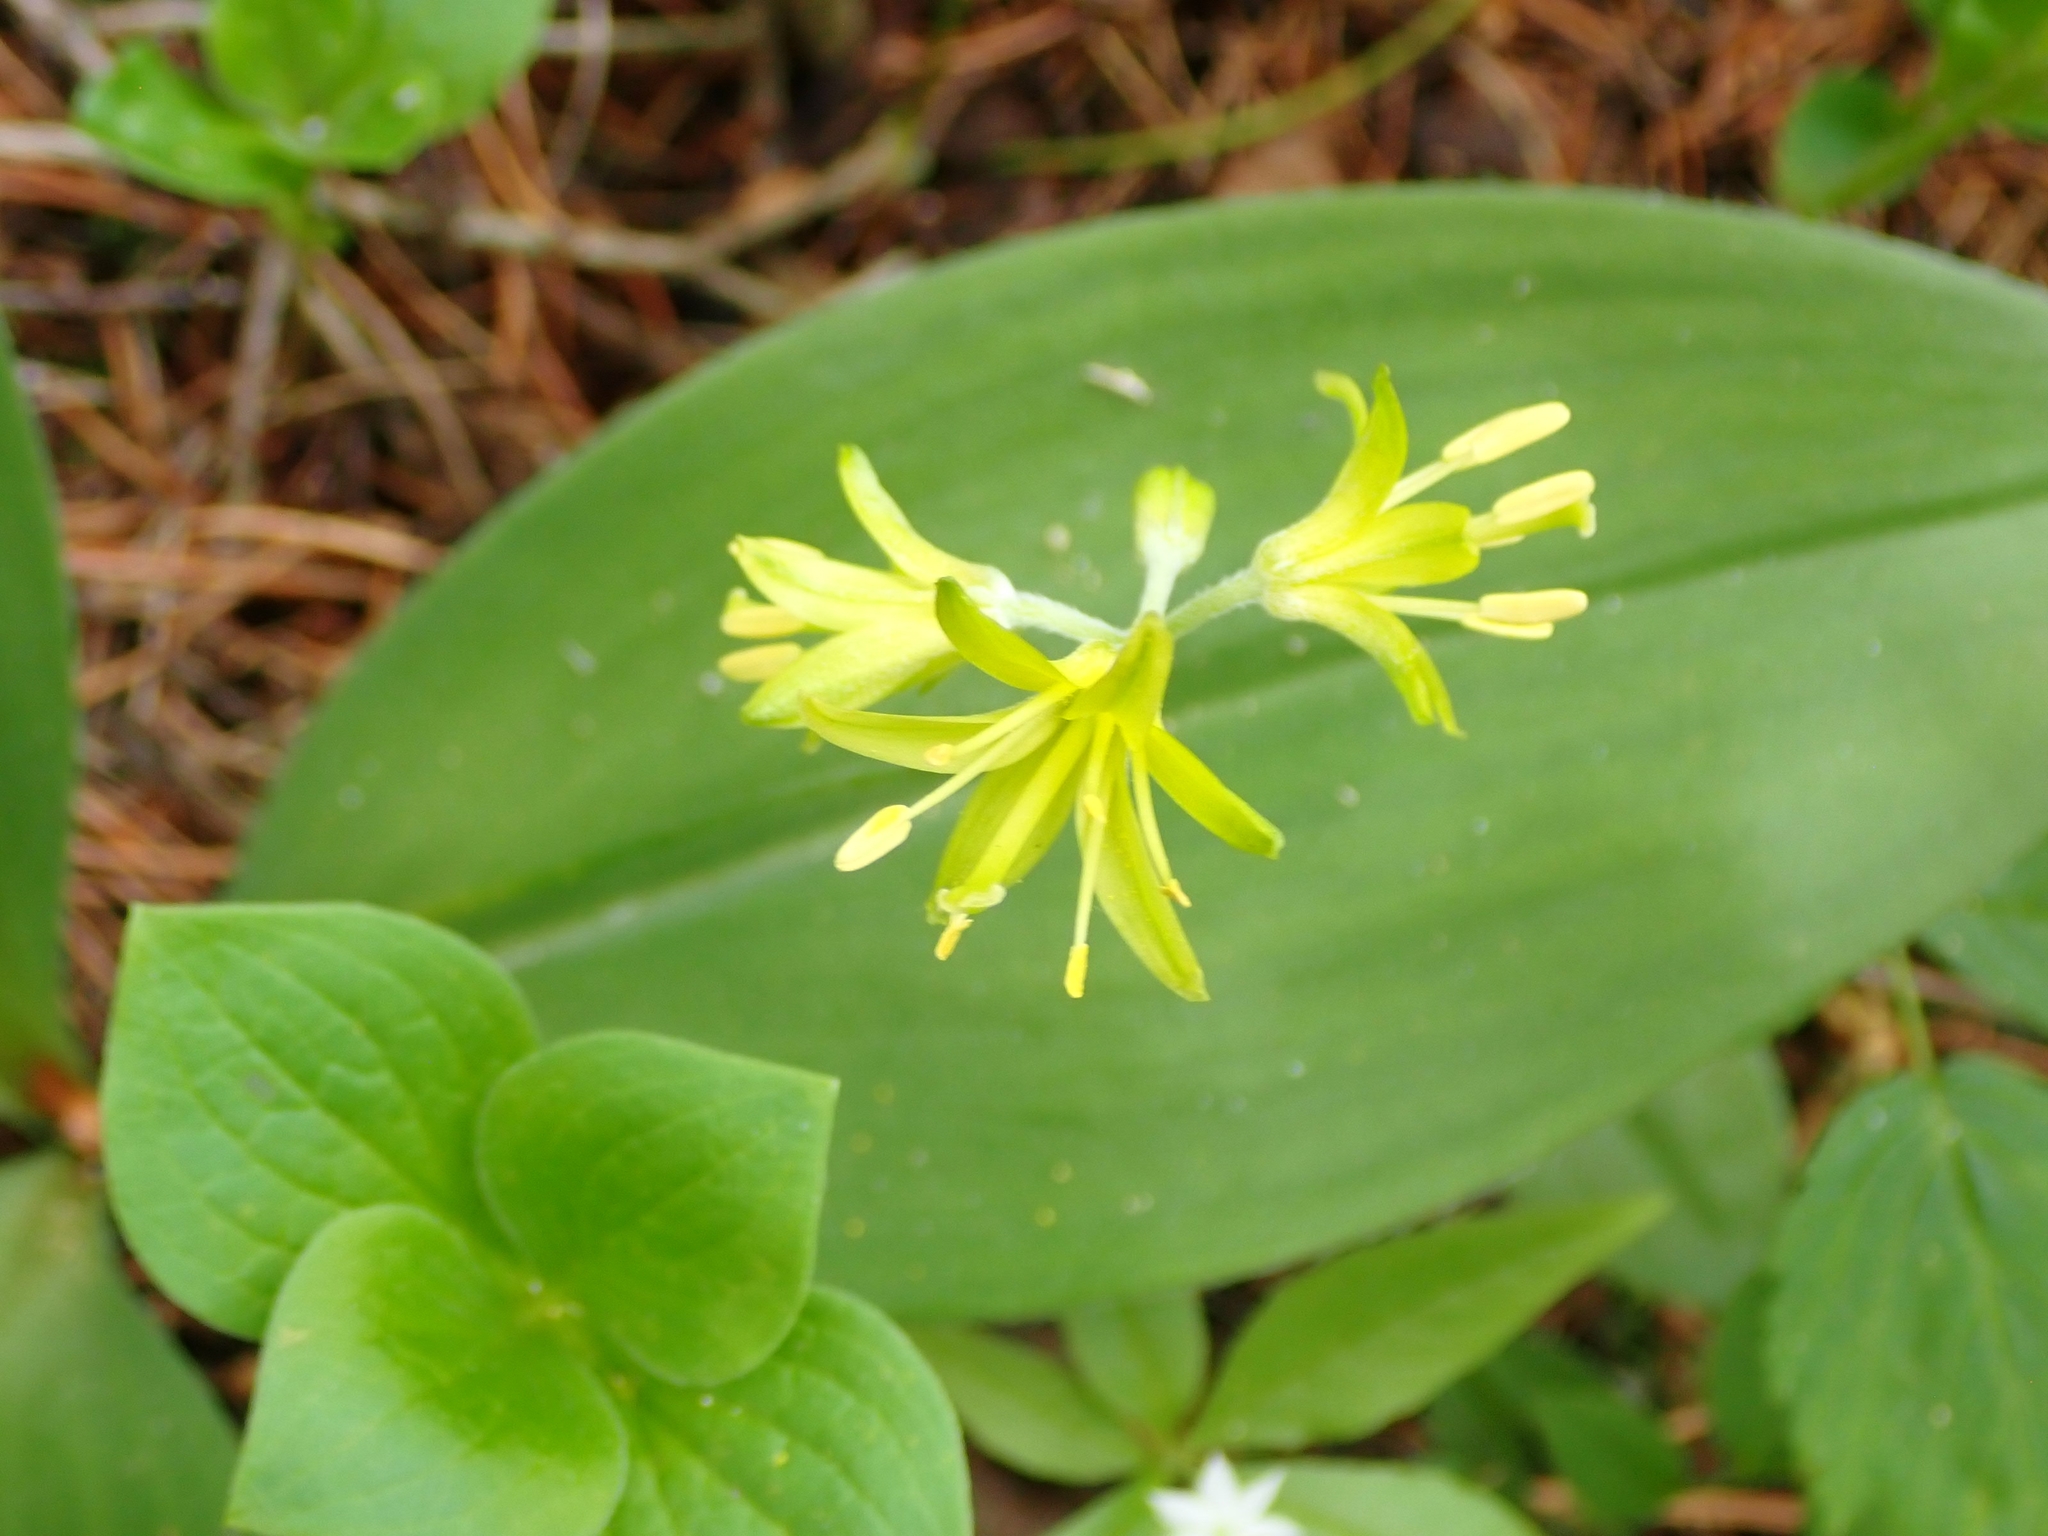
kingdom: Plantae
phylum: Tracheophyta
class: Liliopsida
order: Liliales
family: Liliaceae
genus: Clintonia
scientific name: Clintonia borealis
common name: Yellow clintonia
